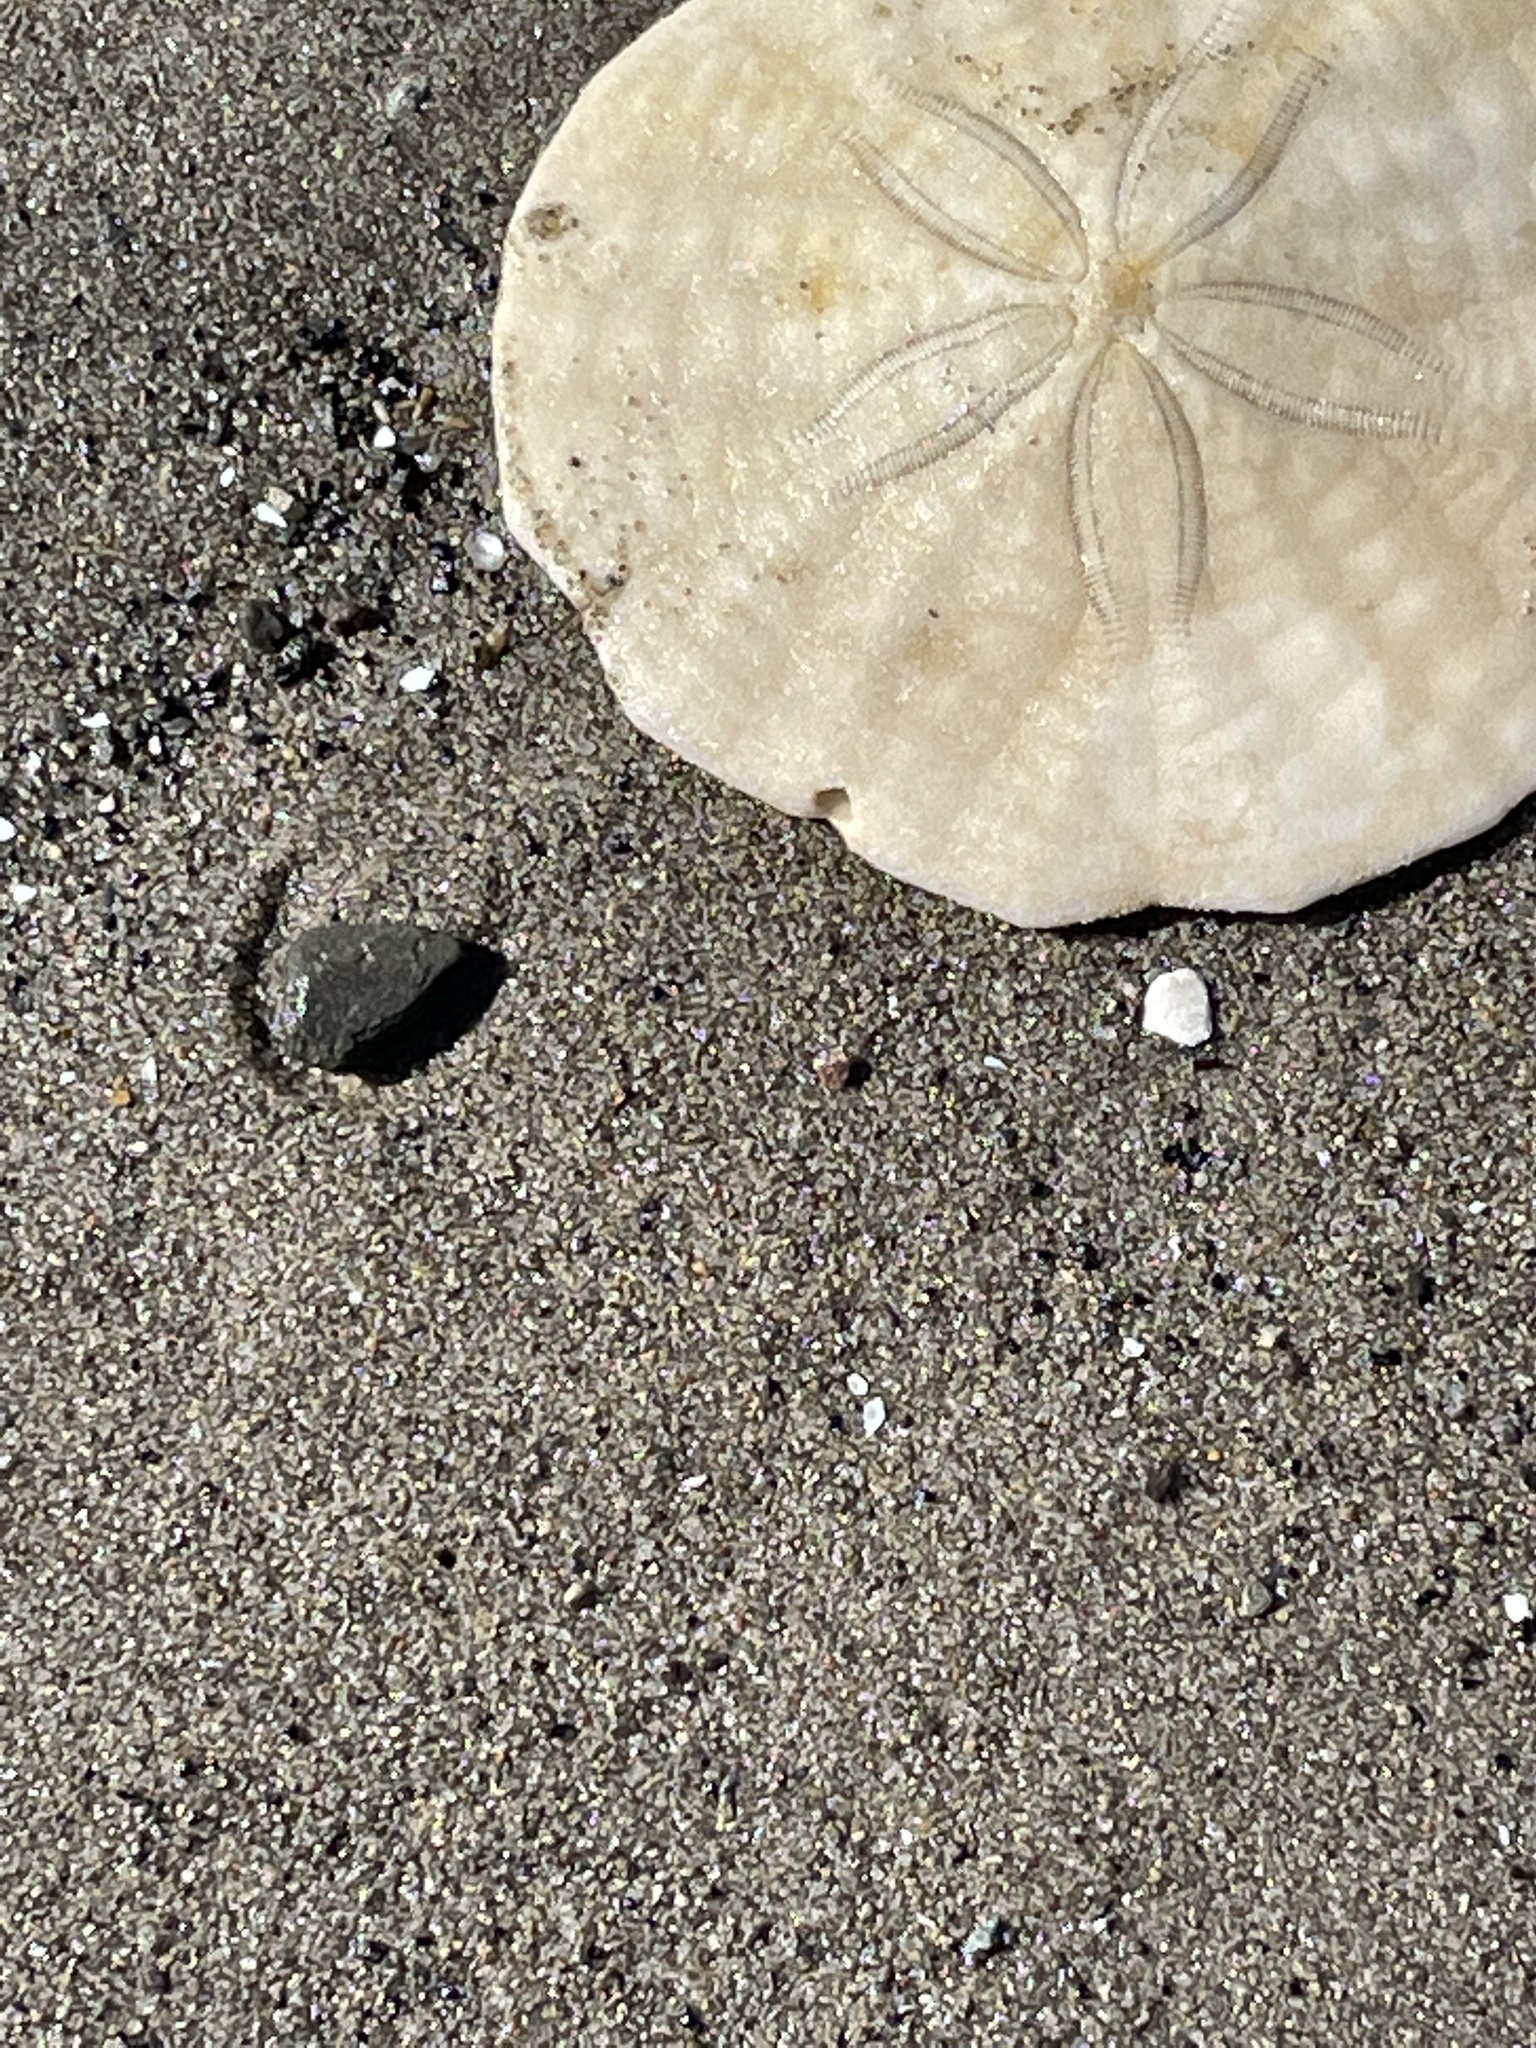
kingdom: Animalia
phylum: Echinodermata
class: Echinoidea
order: Echinolampadacea
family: Echinarachniidae
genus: Echinarachnius
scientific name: Echinarachnius parma
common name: Common sand dollar
